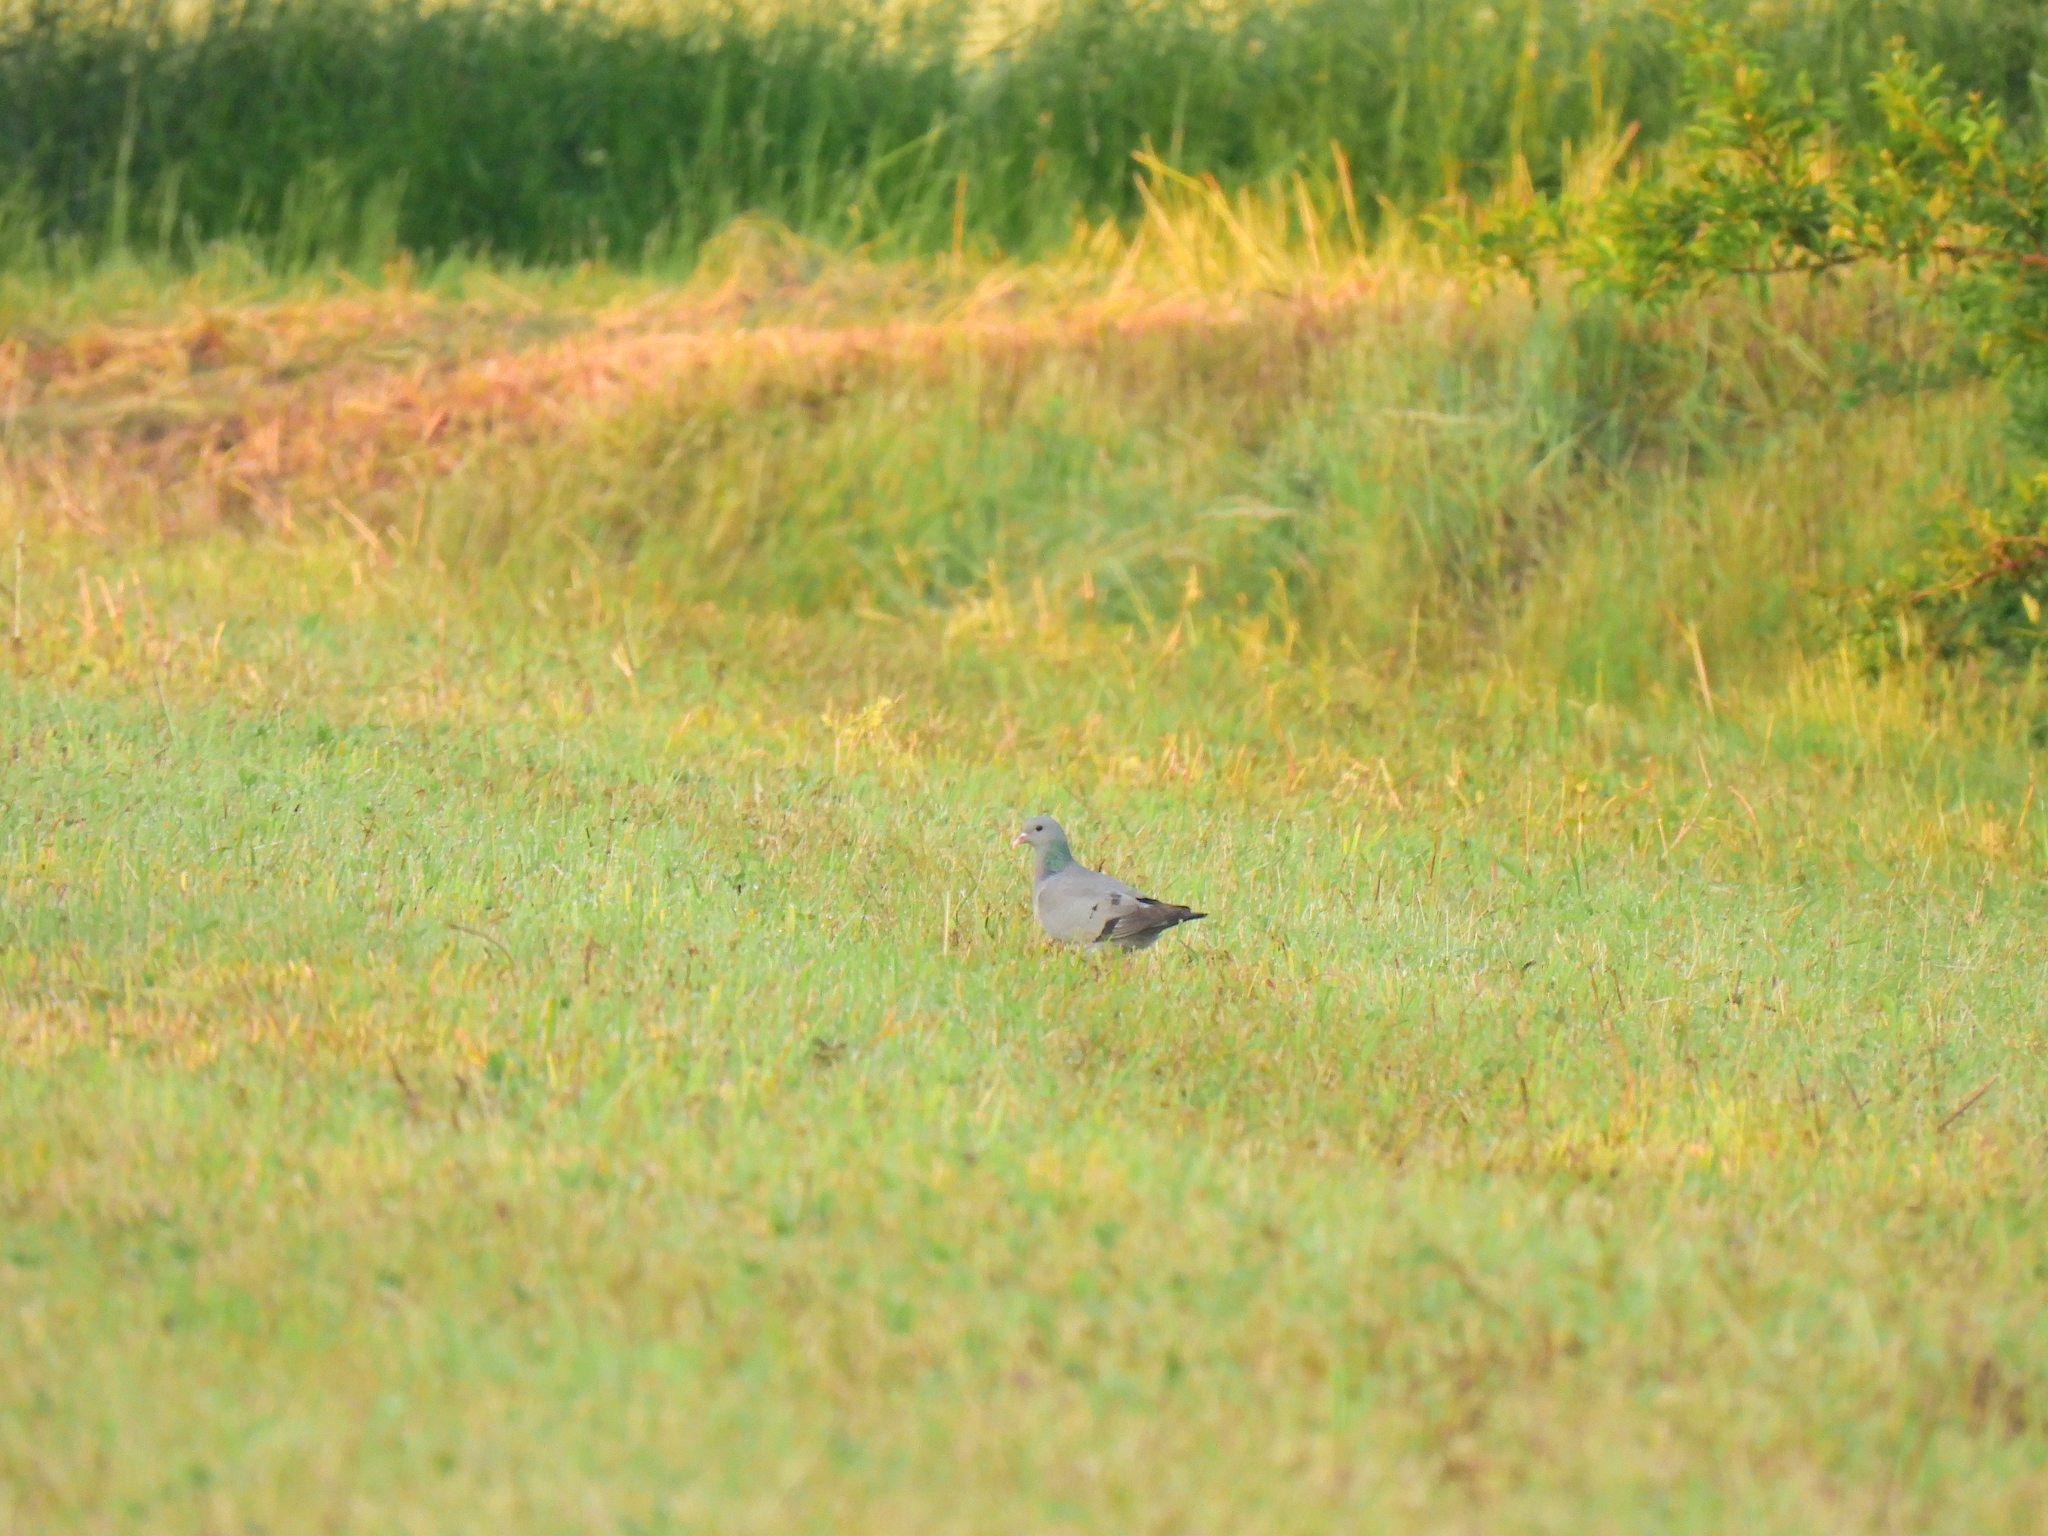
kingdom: Animalia
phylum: Chordata
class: Aves
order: Columbiformes
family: Columbidae
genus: Columba
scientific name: Columba oenas
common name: Stock dove
